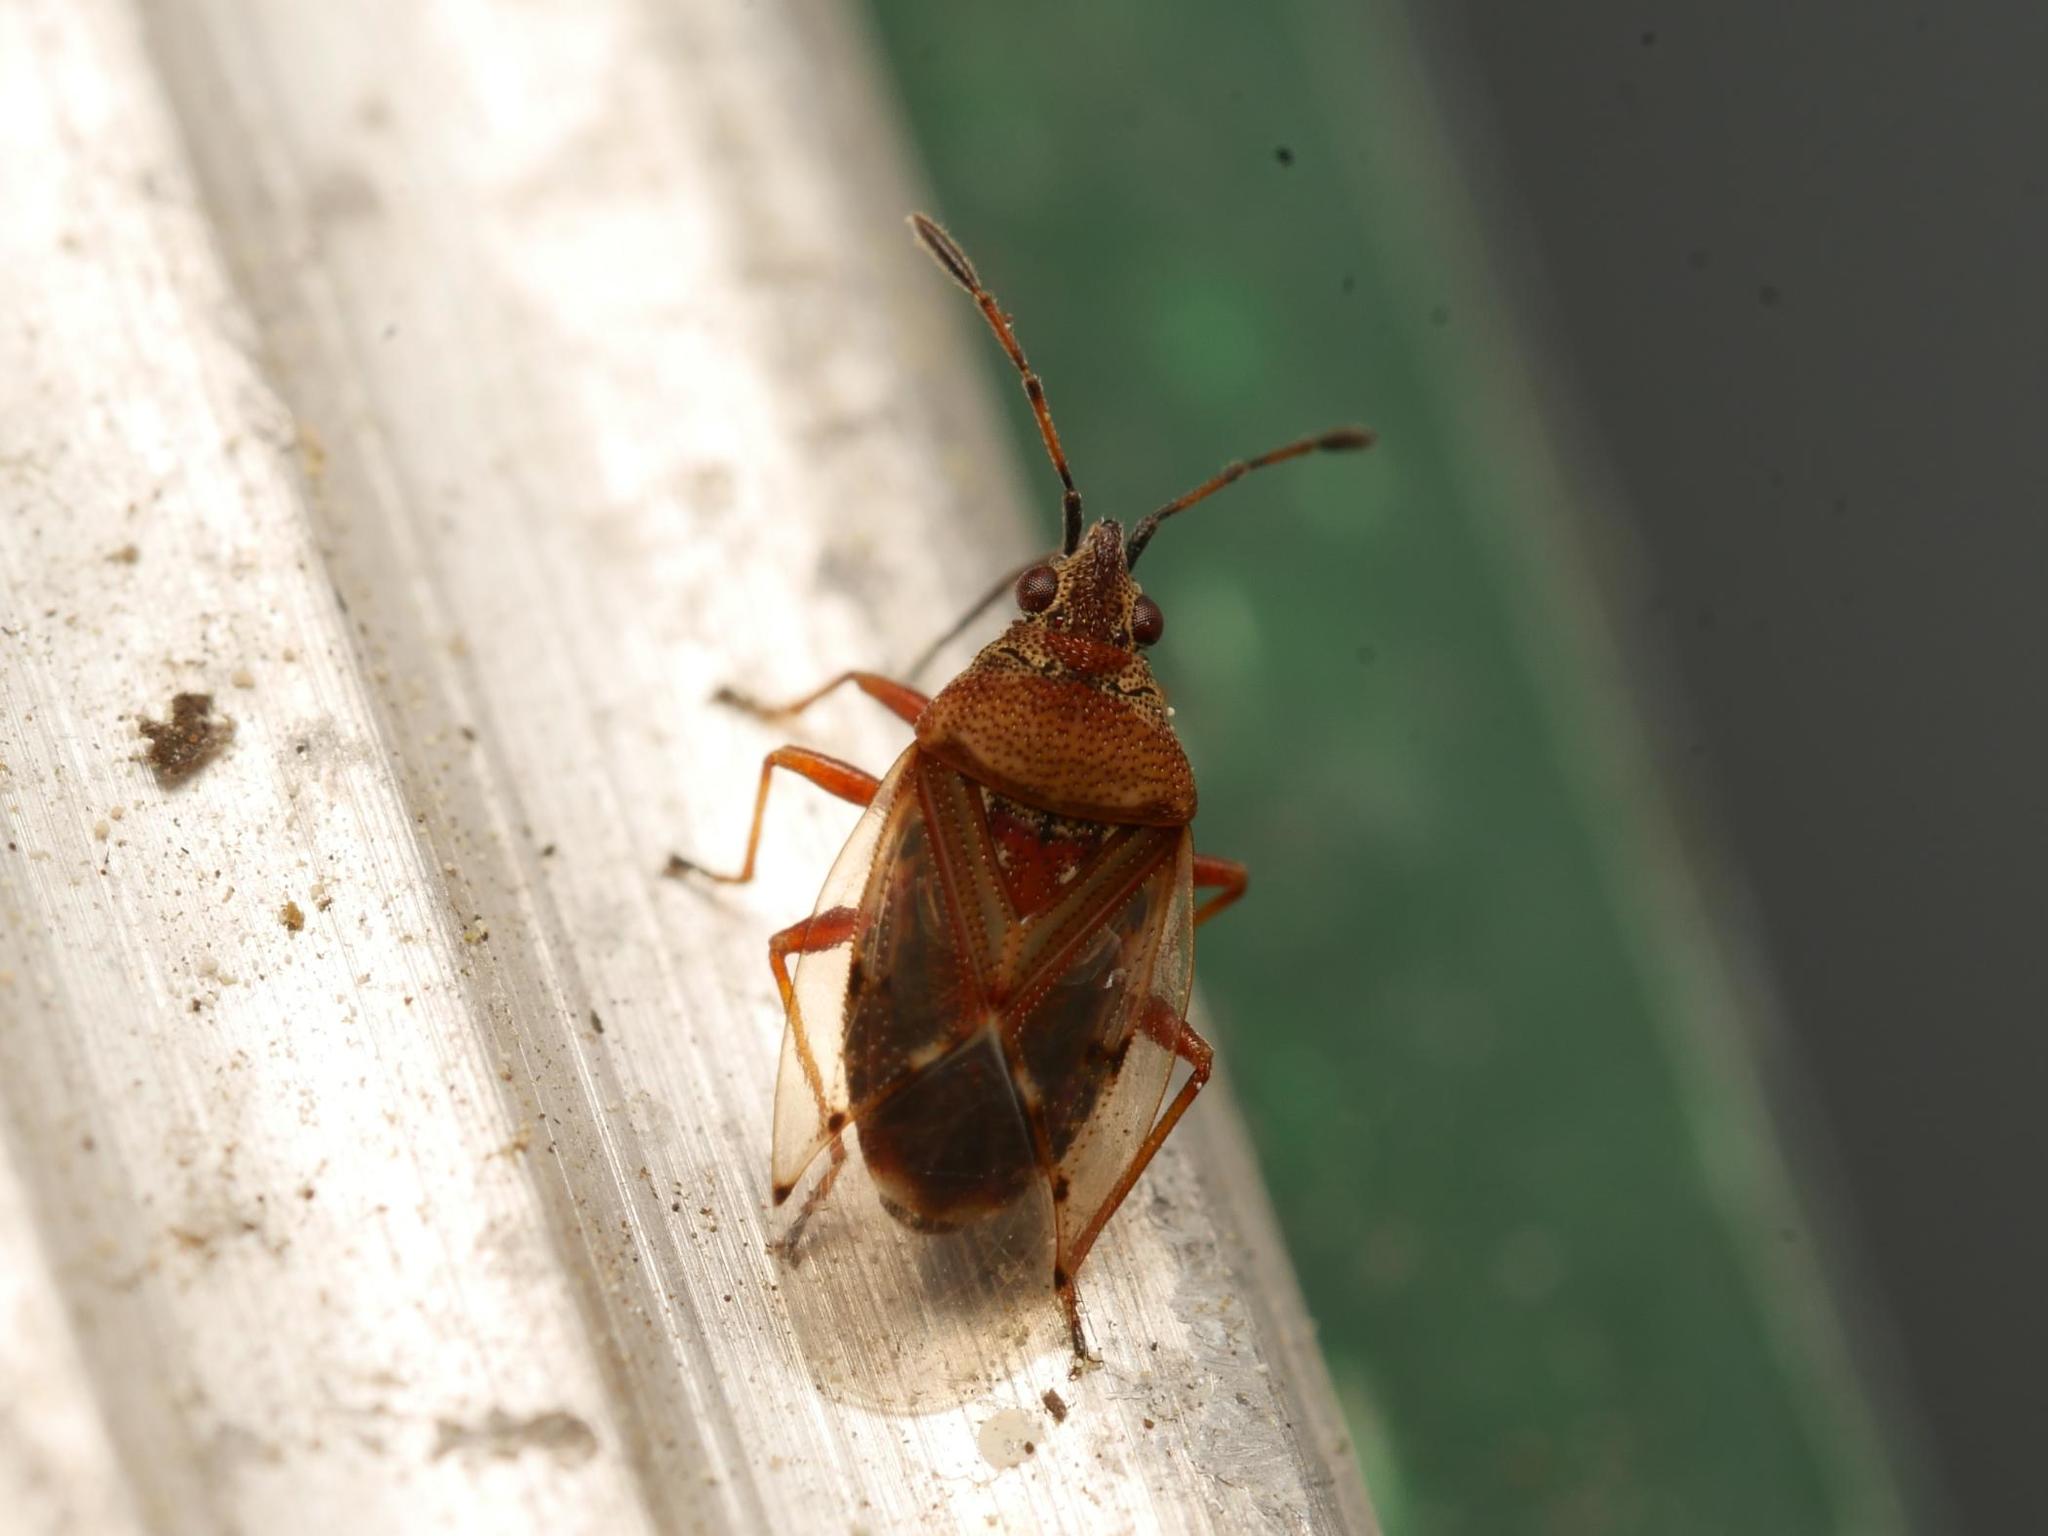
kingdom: Animalia
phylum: Arthropoda
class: Insecta
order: Hemiptera
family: Lygaeidae
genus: Kleidocerys
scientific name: Kleidocerys resedae
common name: Birch catkin bug
